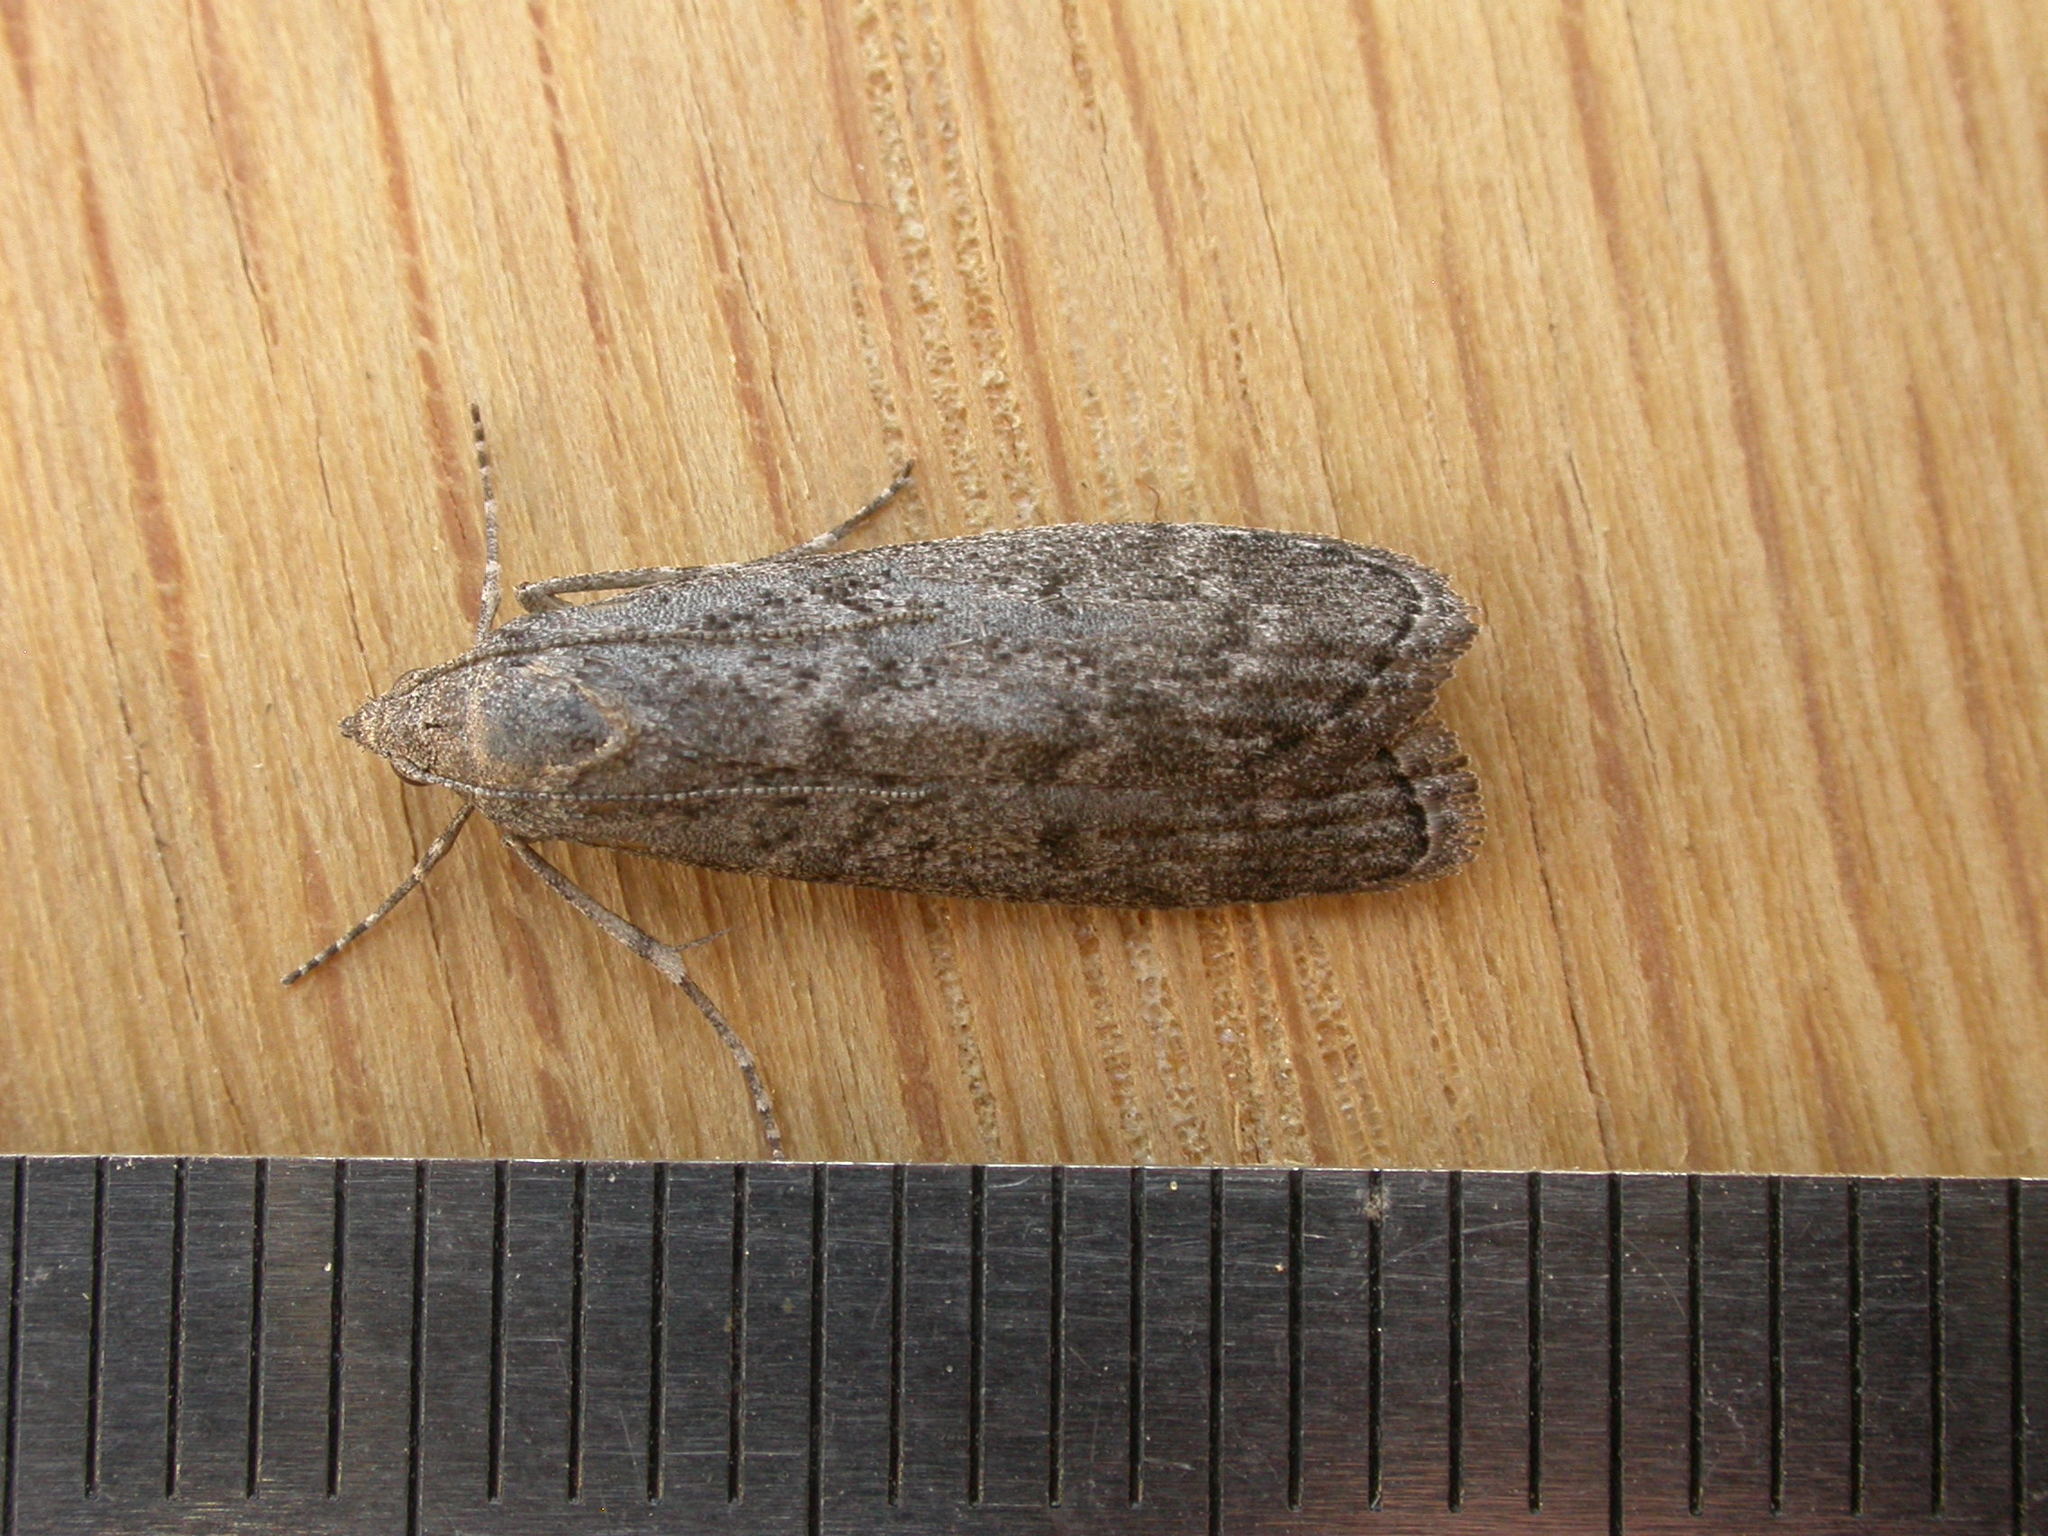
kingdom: Animalia
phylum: Arthropoda
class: Insecta
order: Lepidoptera
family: Pyralidae
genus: Heteromicta
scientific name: Heteromicta pachytera
